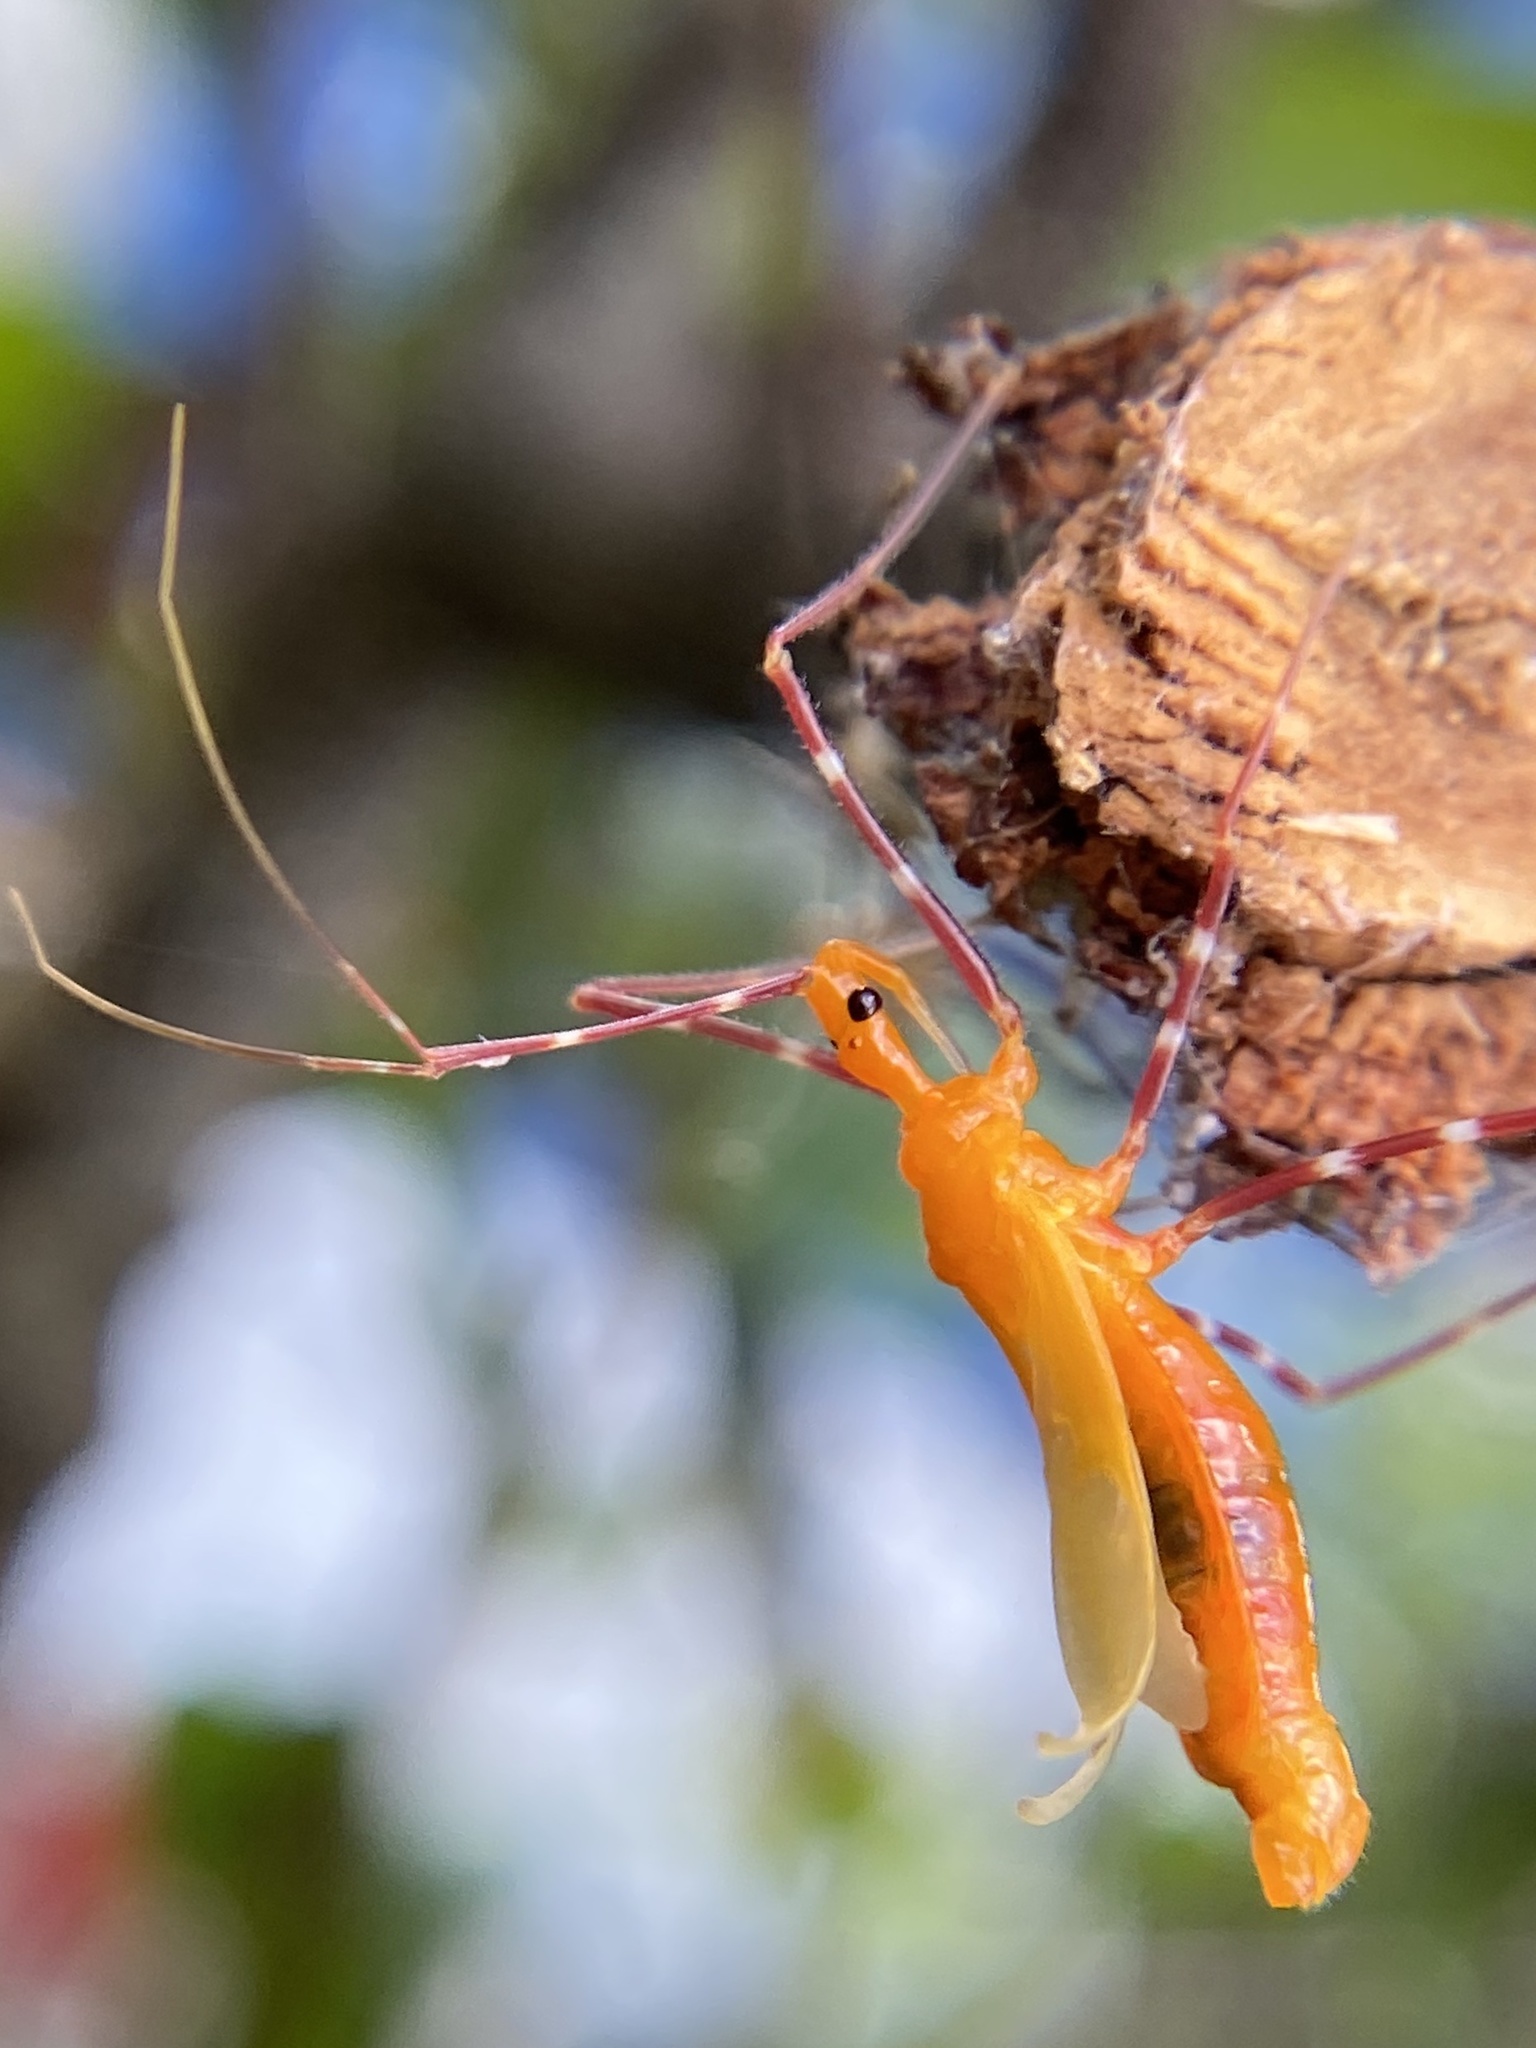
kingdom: Animalia
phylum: Arthropoda
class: Insecta
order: Hemiptera
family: Reduviidae
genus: Zelus
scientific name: Zelus longipes
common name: Milkweed assassin bug
